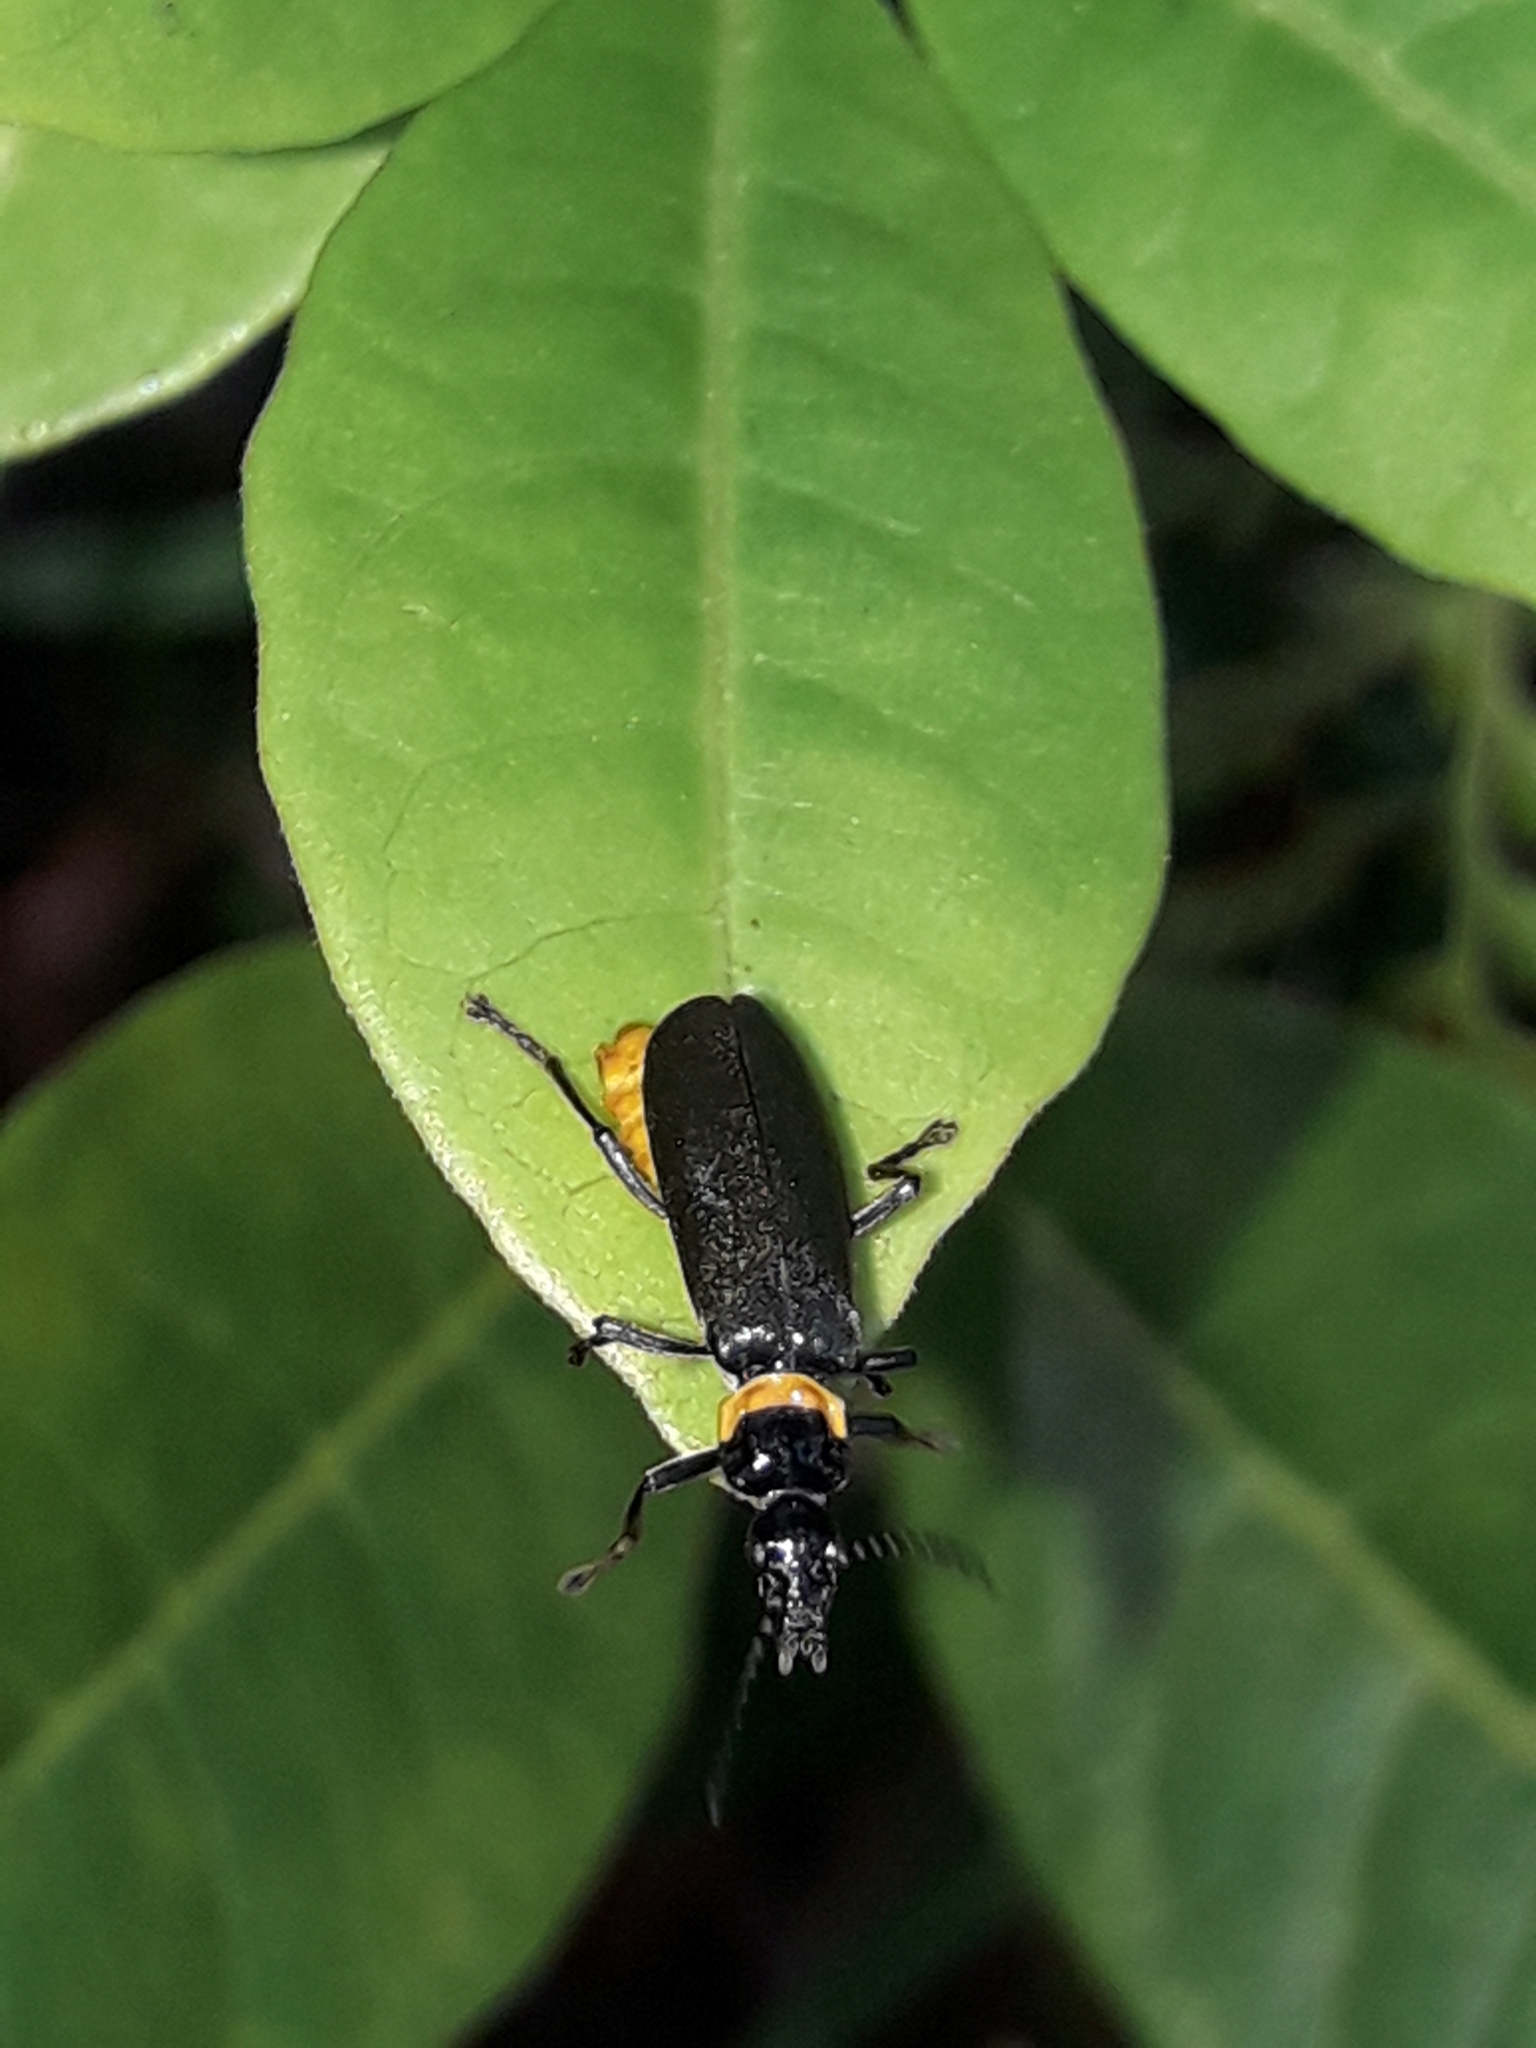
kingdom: Animalia
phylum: Arthropoda
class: Insecta
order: Coleoptera
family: Cantharidae
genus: Chauliognathus
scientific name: Chauliognathus
